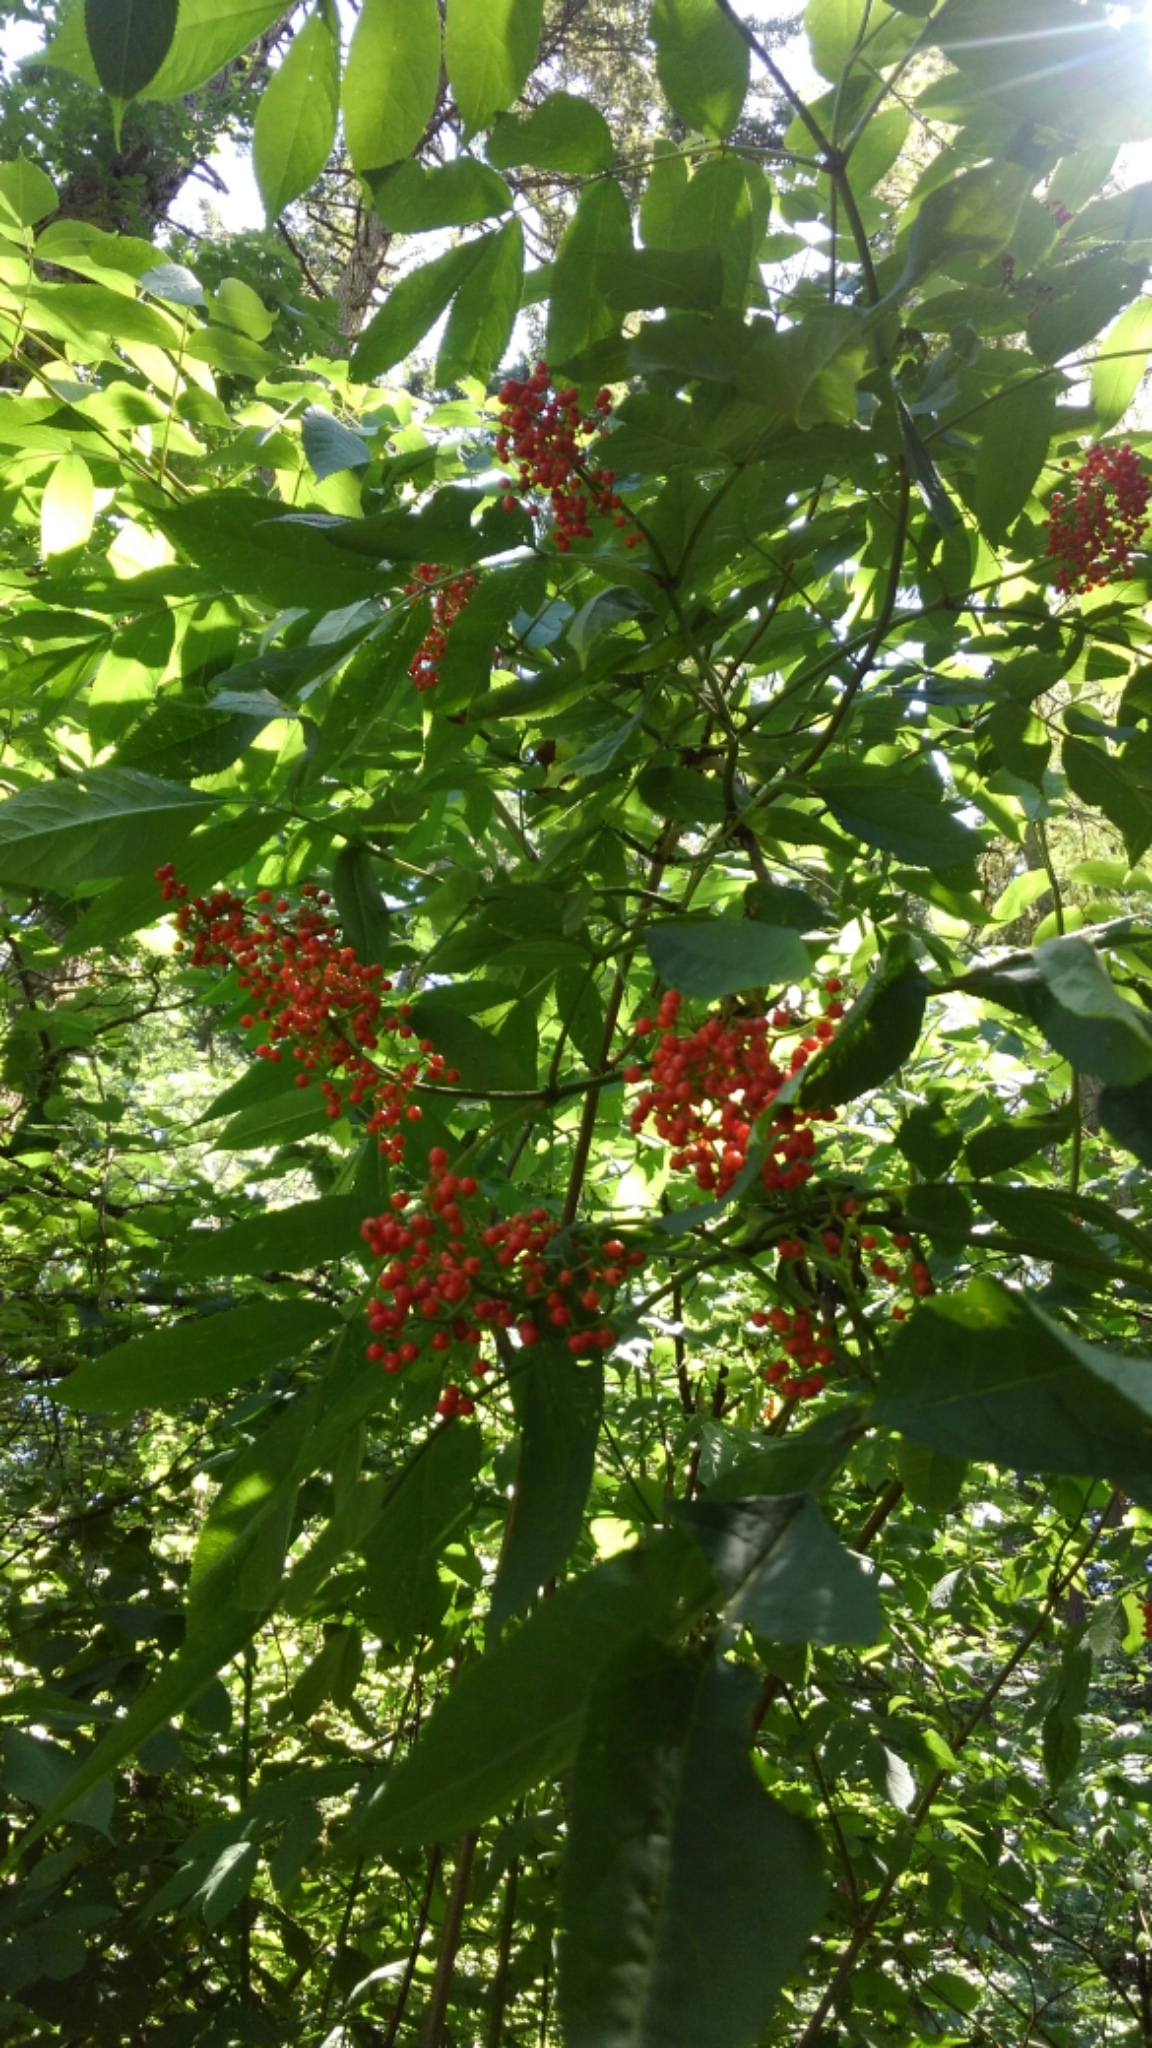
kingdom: Plantae
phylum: Tracheophyta
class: Magnoliopsida
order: Dipsacales
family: Viburnaceae
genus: Sambucus
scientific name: Sambucus racemosa
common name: Red-berried elder
